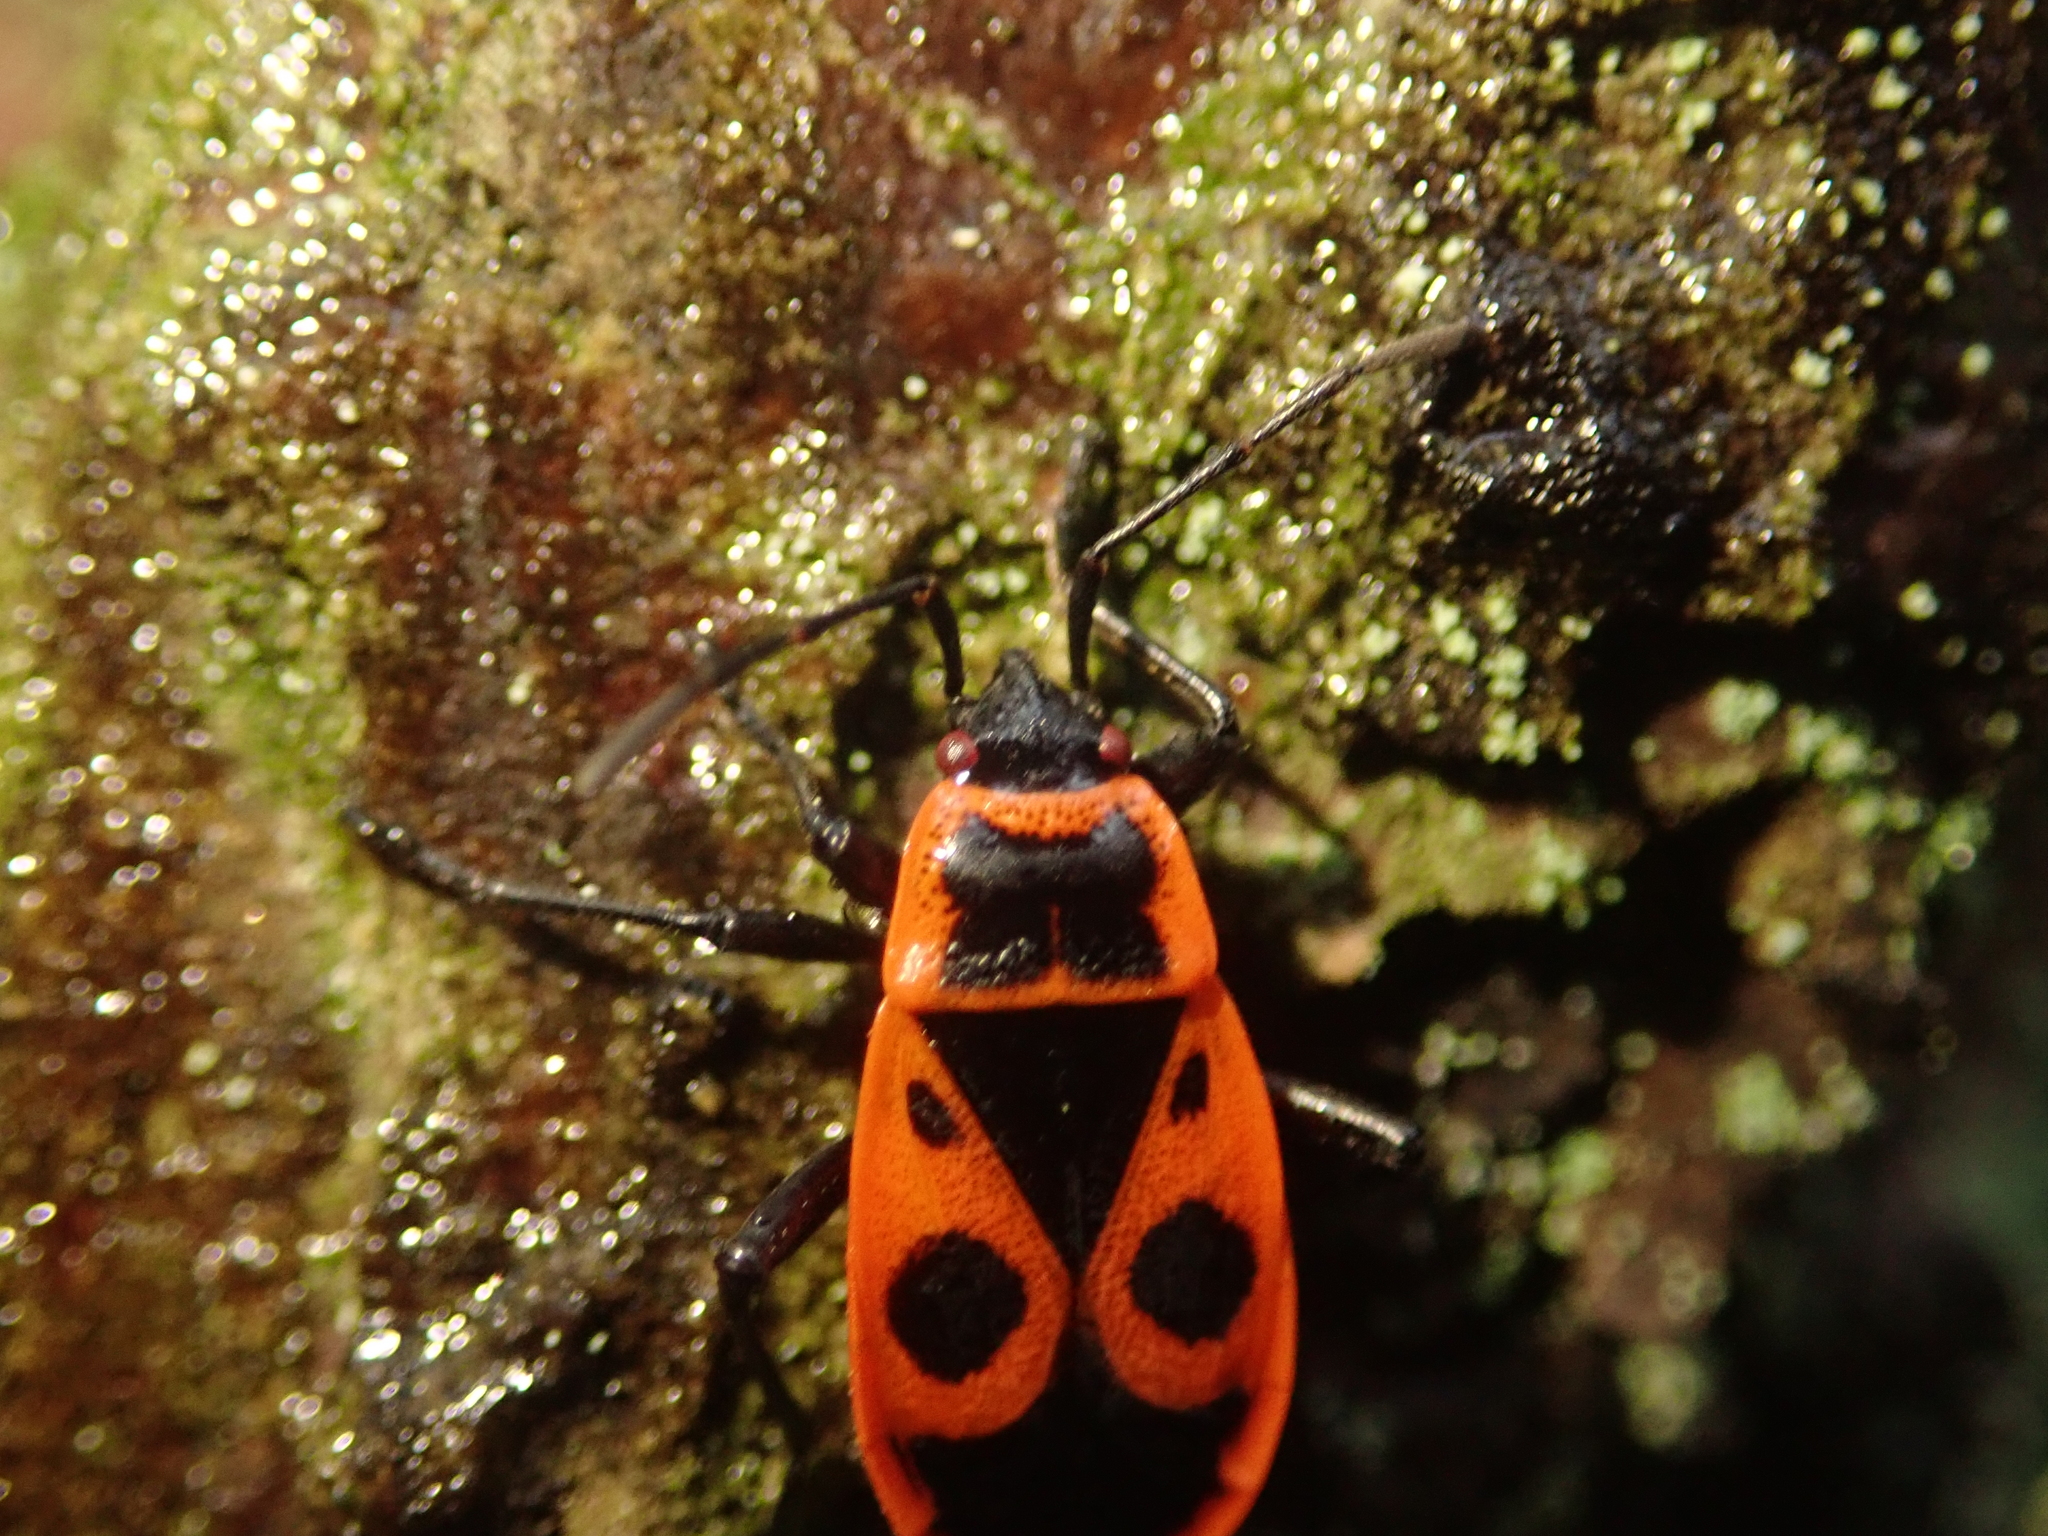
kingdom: Animalia
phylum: Arthropoda
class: Insecta
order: Hemiptera
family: Pyrrhocoridae
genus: Pyrrhocoris
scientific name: Pyrrhocoris apterus
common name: Firebug
